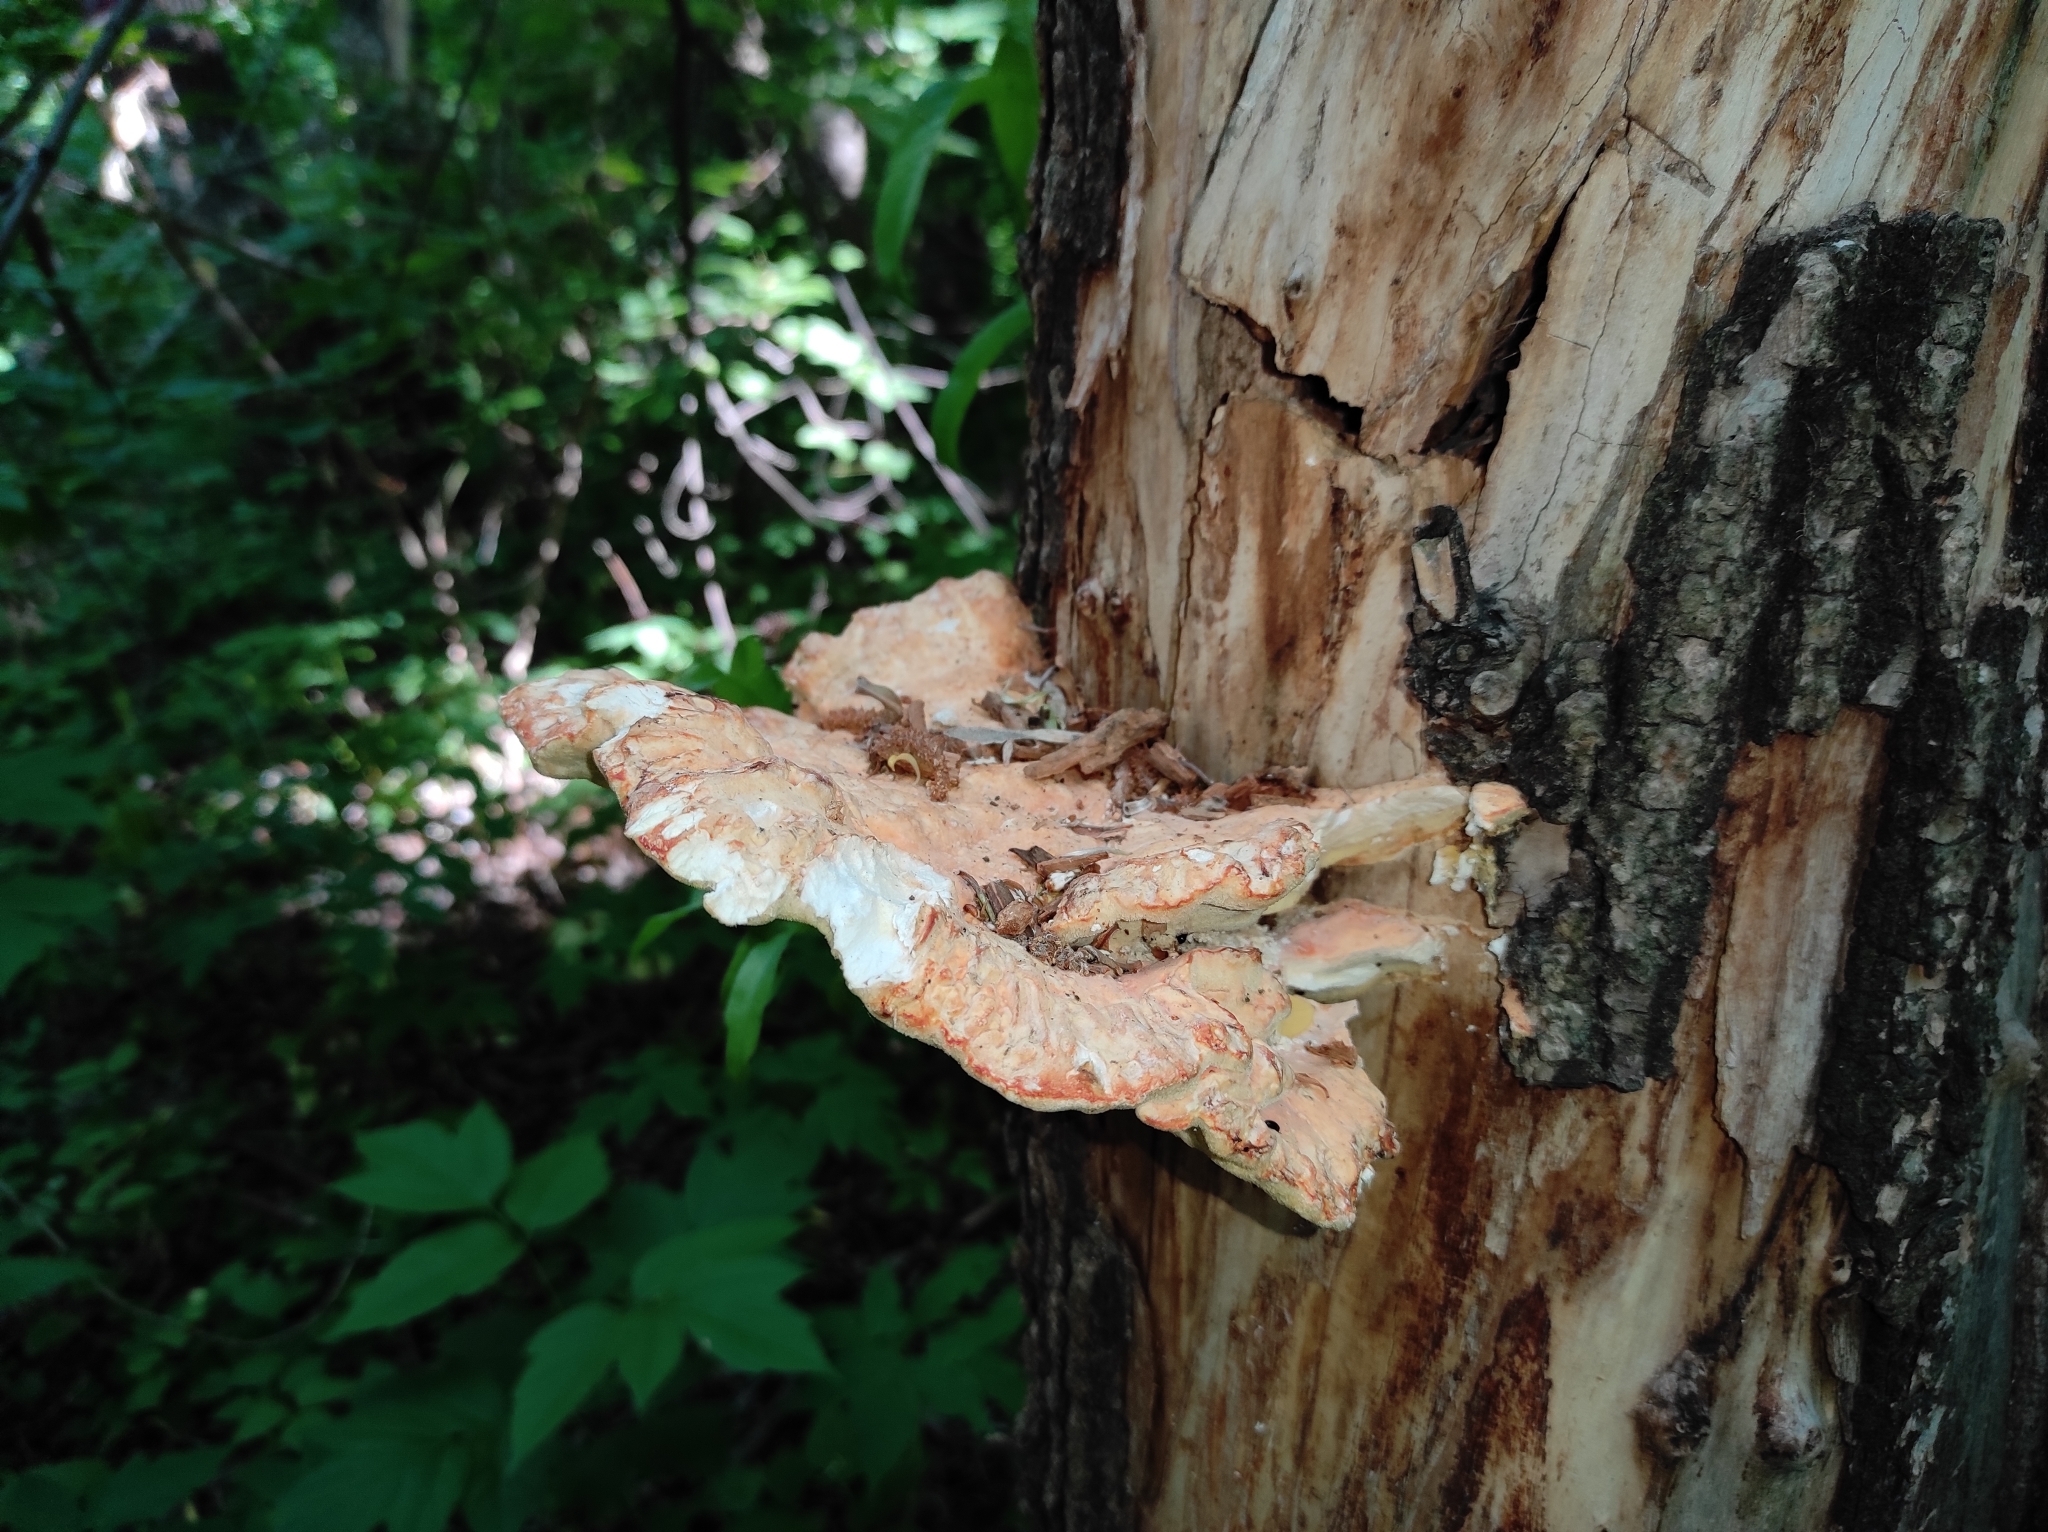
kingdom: Fungi
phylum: Basidiomycota
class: Agaricomycetes
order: Polyporales
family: Laetiporaceae
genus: Laetiporus
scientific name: Laetiporus sulphureus
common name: Chicken of the woods
